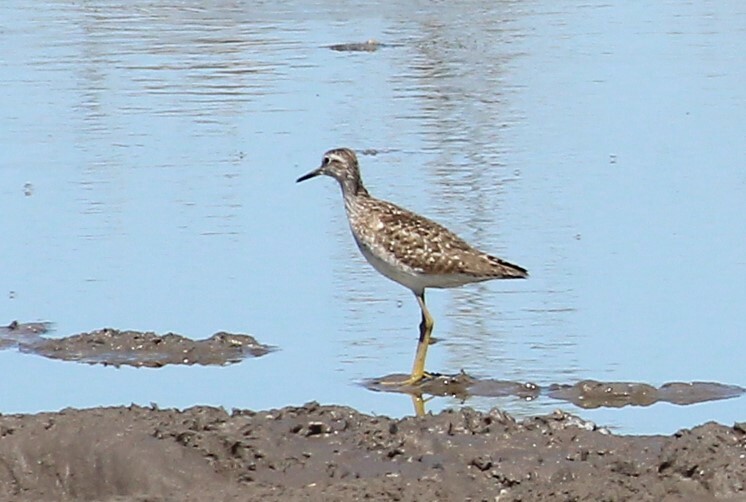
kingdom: Animalia
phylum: Chordata
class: Aves
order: Charadriiformes
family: Scolopacidae
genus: Tringa
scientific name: Tringa glareola
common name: Wood sandpiper
